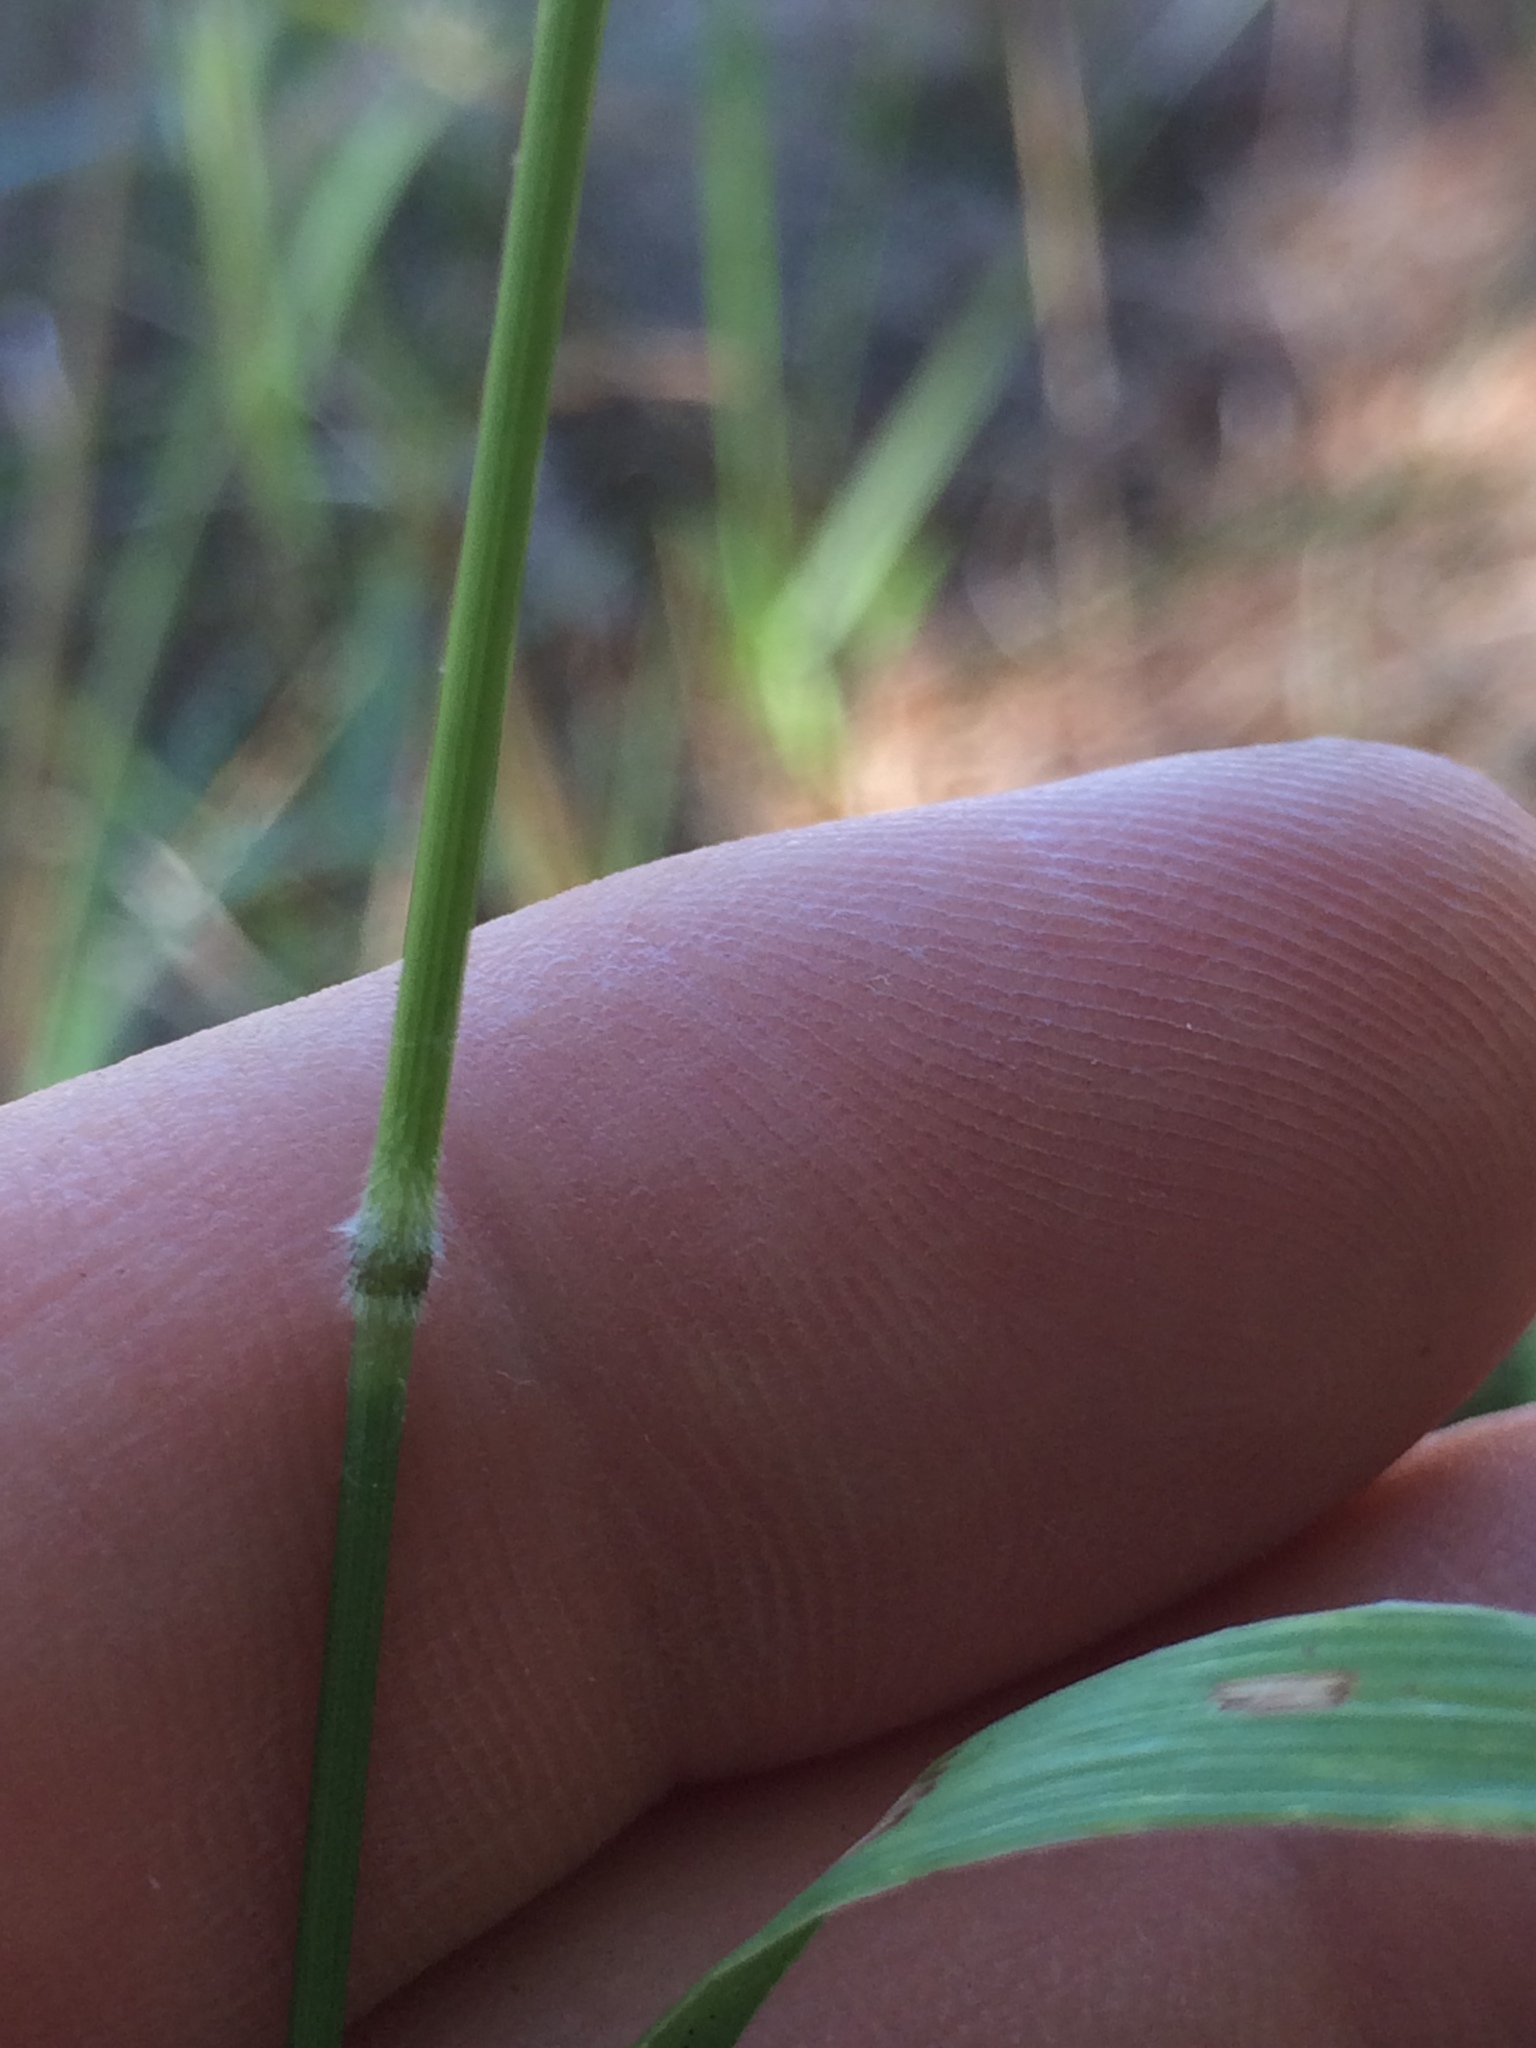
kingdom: Plantae
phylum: Tracheophyta
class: Liliopsida
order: Poales
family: Poaceae
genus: Bromus
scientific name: Bromus pumpellianus
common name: Pumpelly's brome
